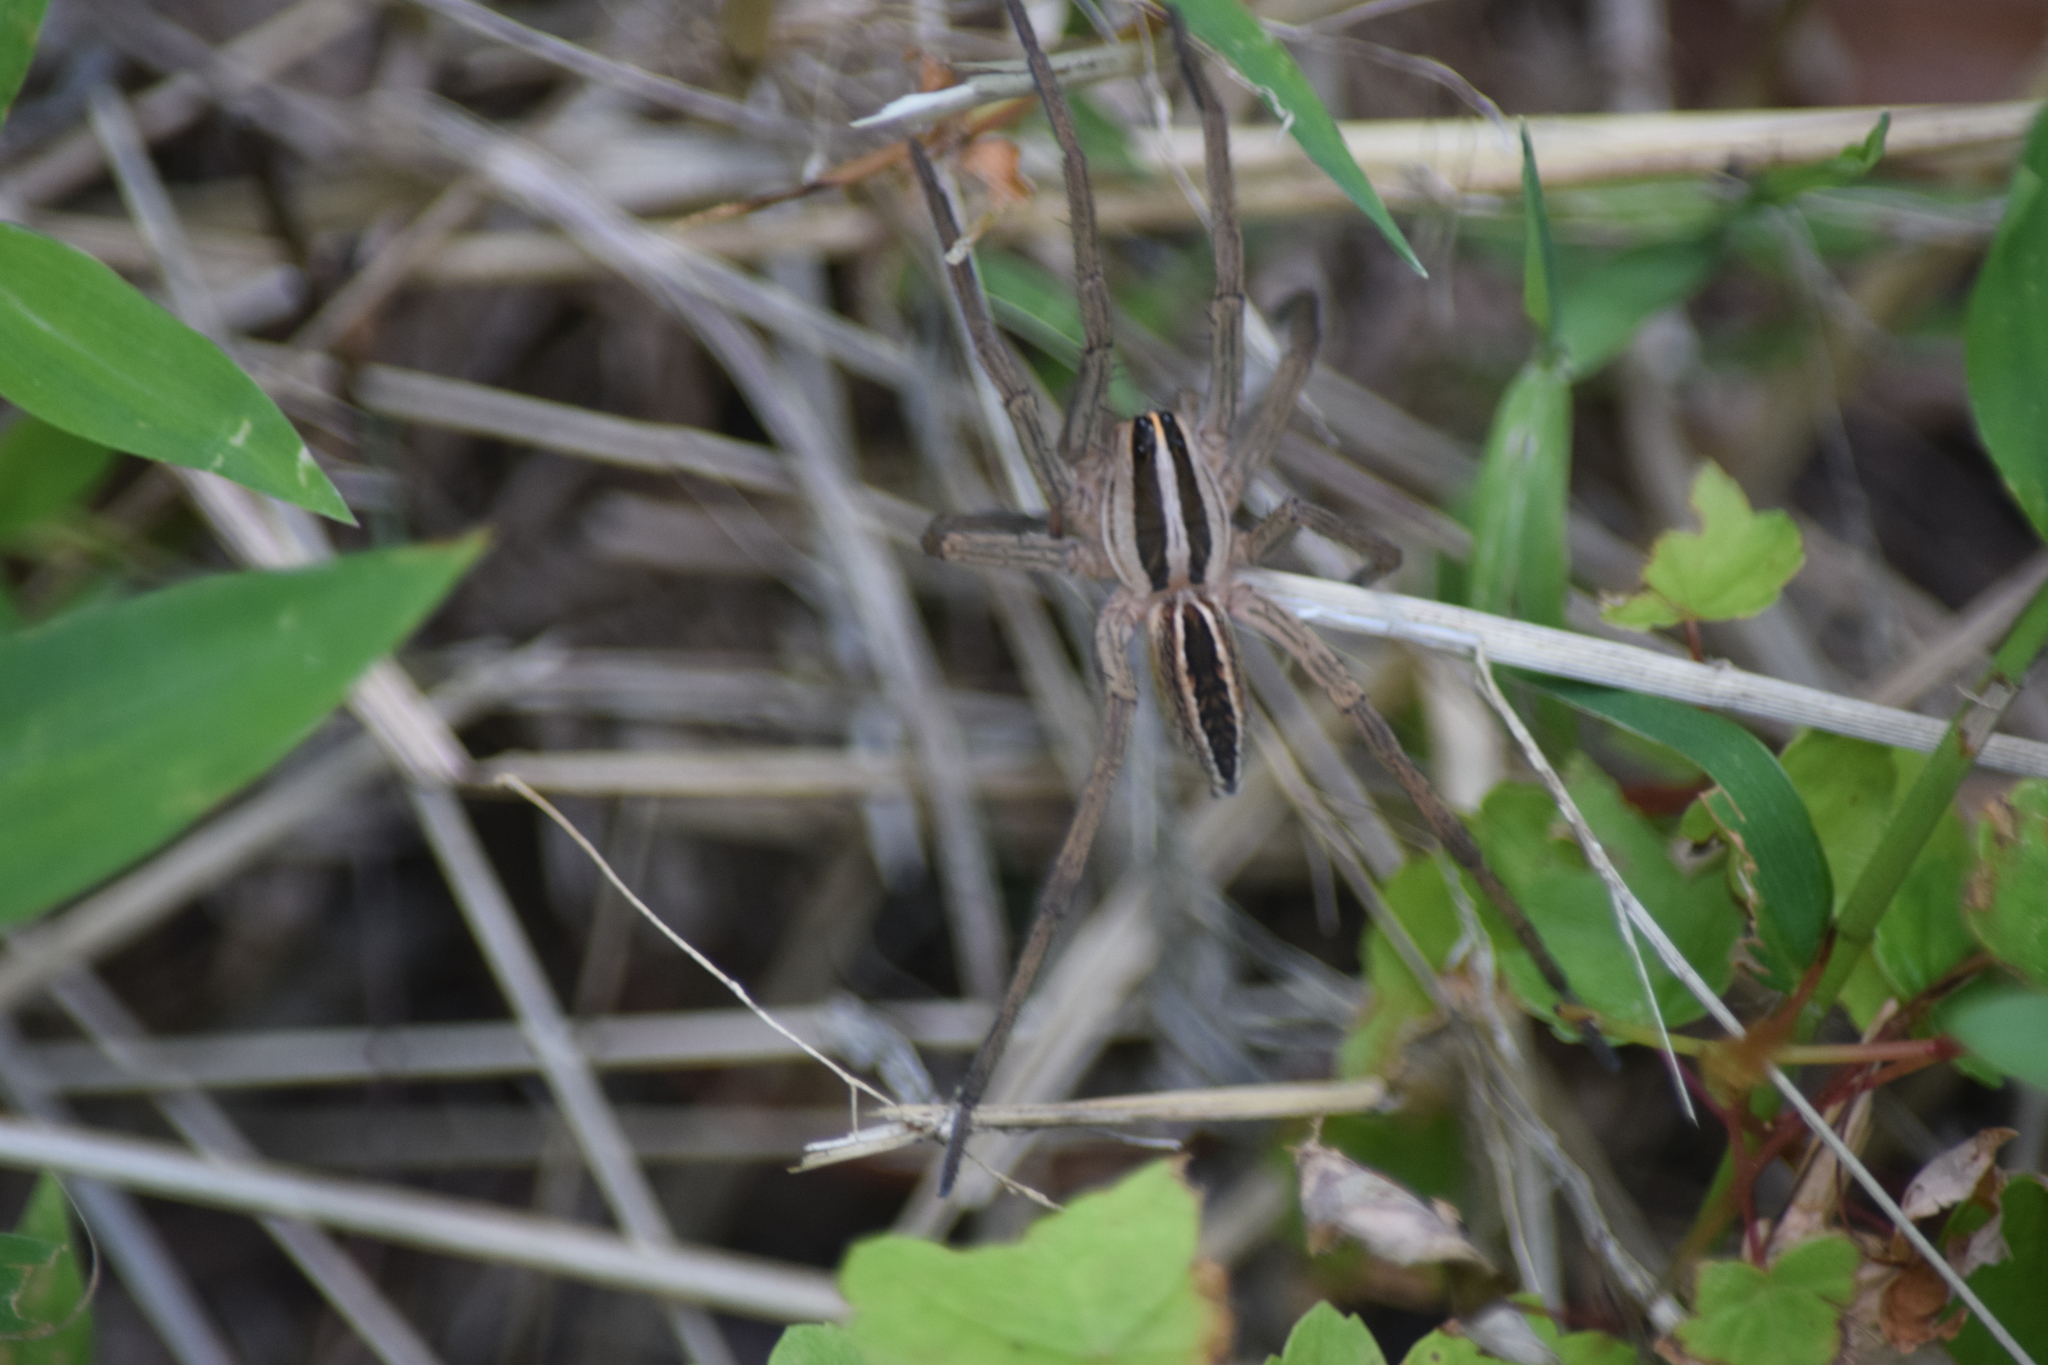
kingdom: Animalia
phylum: Arthropoda
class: Arachnida
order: Araneae
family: Lycosidae
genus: Rabidosa
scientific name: Rabidosa rabida
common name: Rabid wolf spider
